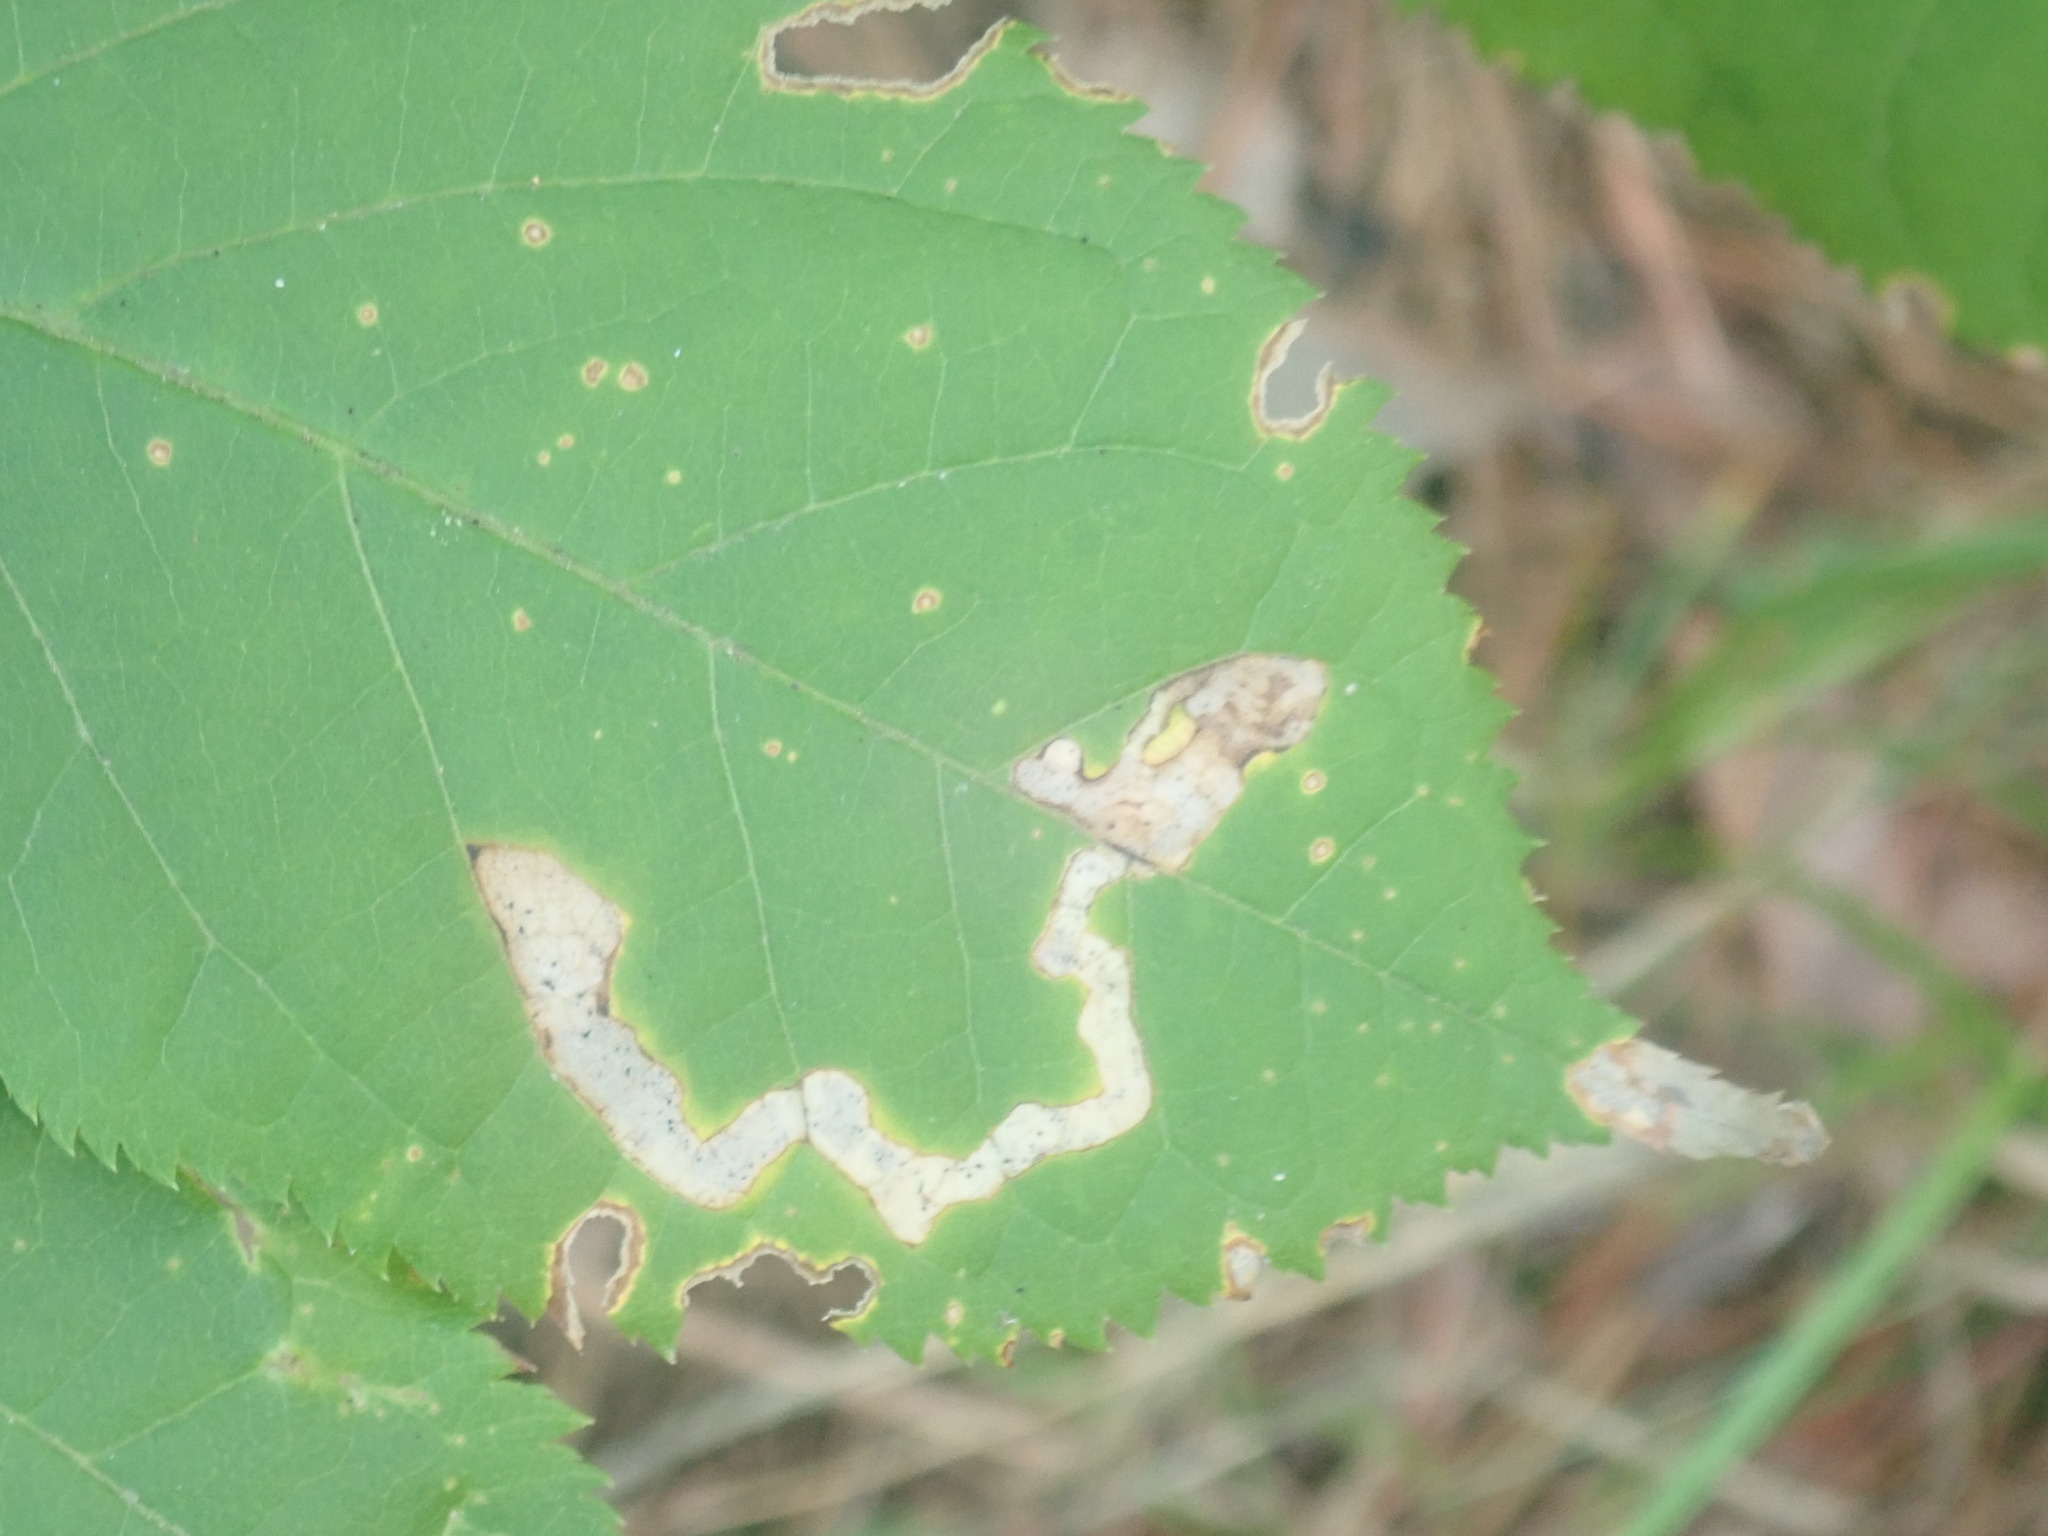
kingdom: Animalia
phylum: Arthropoda
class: Insecta
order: Diptera
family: Agromyzidae
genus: Phytomyza
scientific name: Phytomyza aralivora
